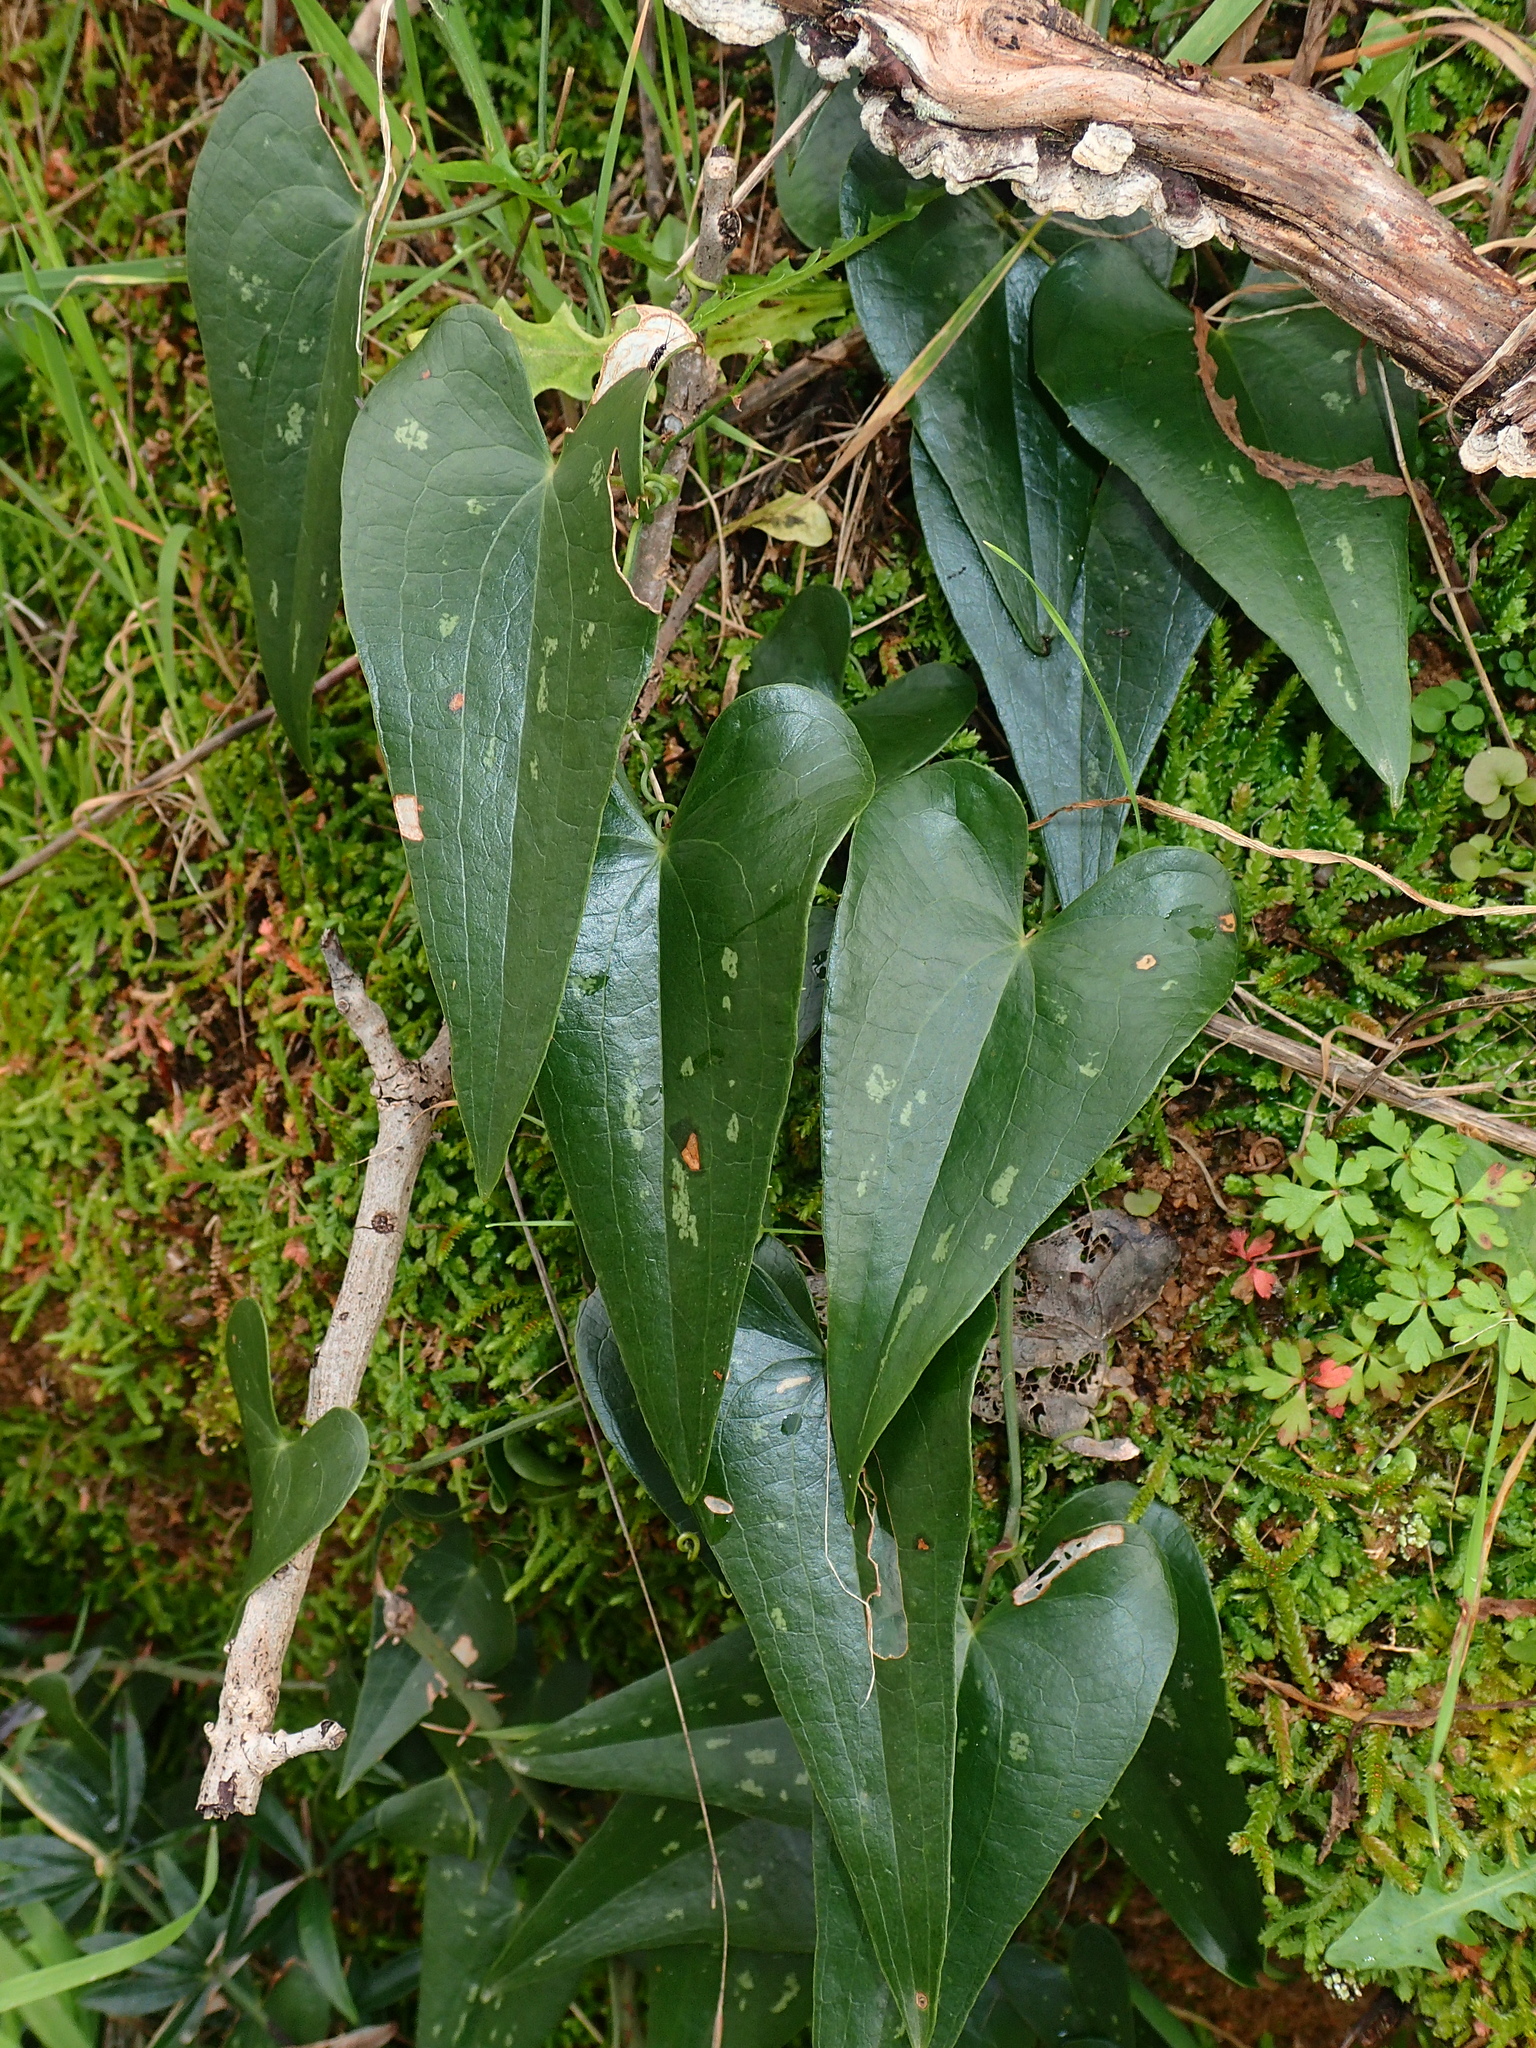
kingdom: Plantae
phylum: Tracheophyta
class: Liliopsida
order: Liliales
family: Smilacaceae
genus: Smilax
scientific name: Smilax aspera
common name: Common smilax
